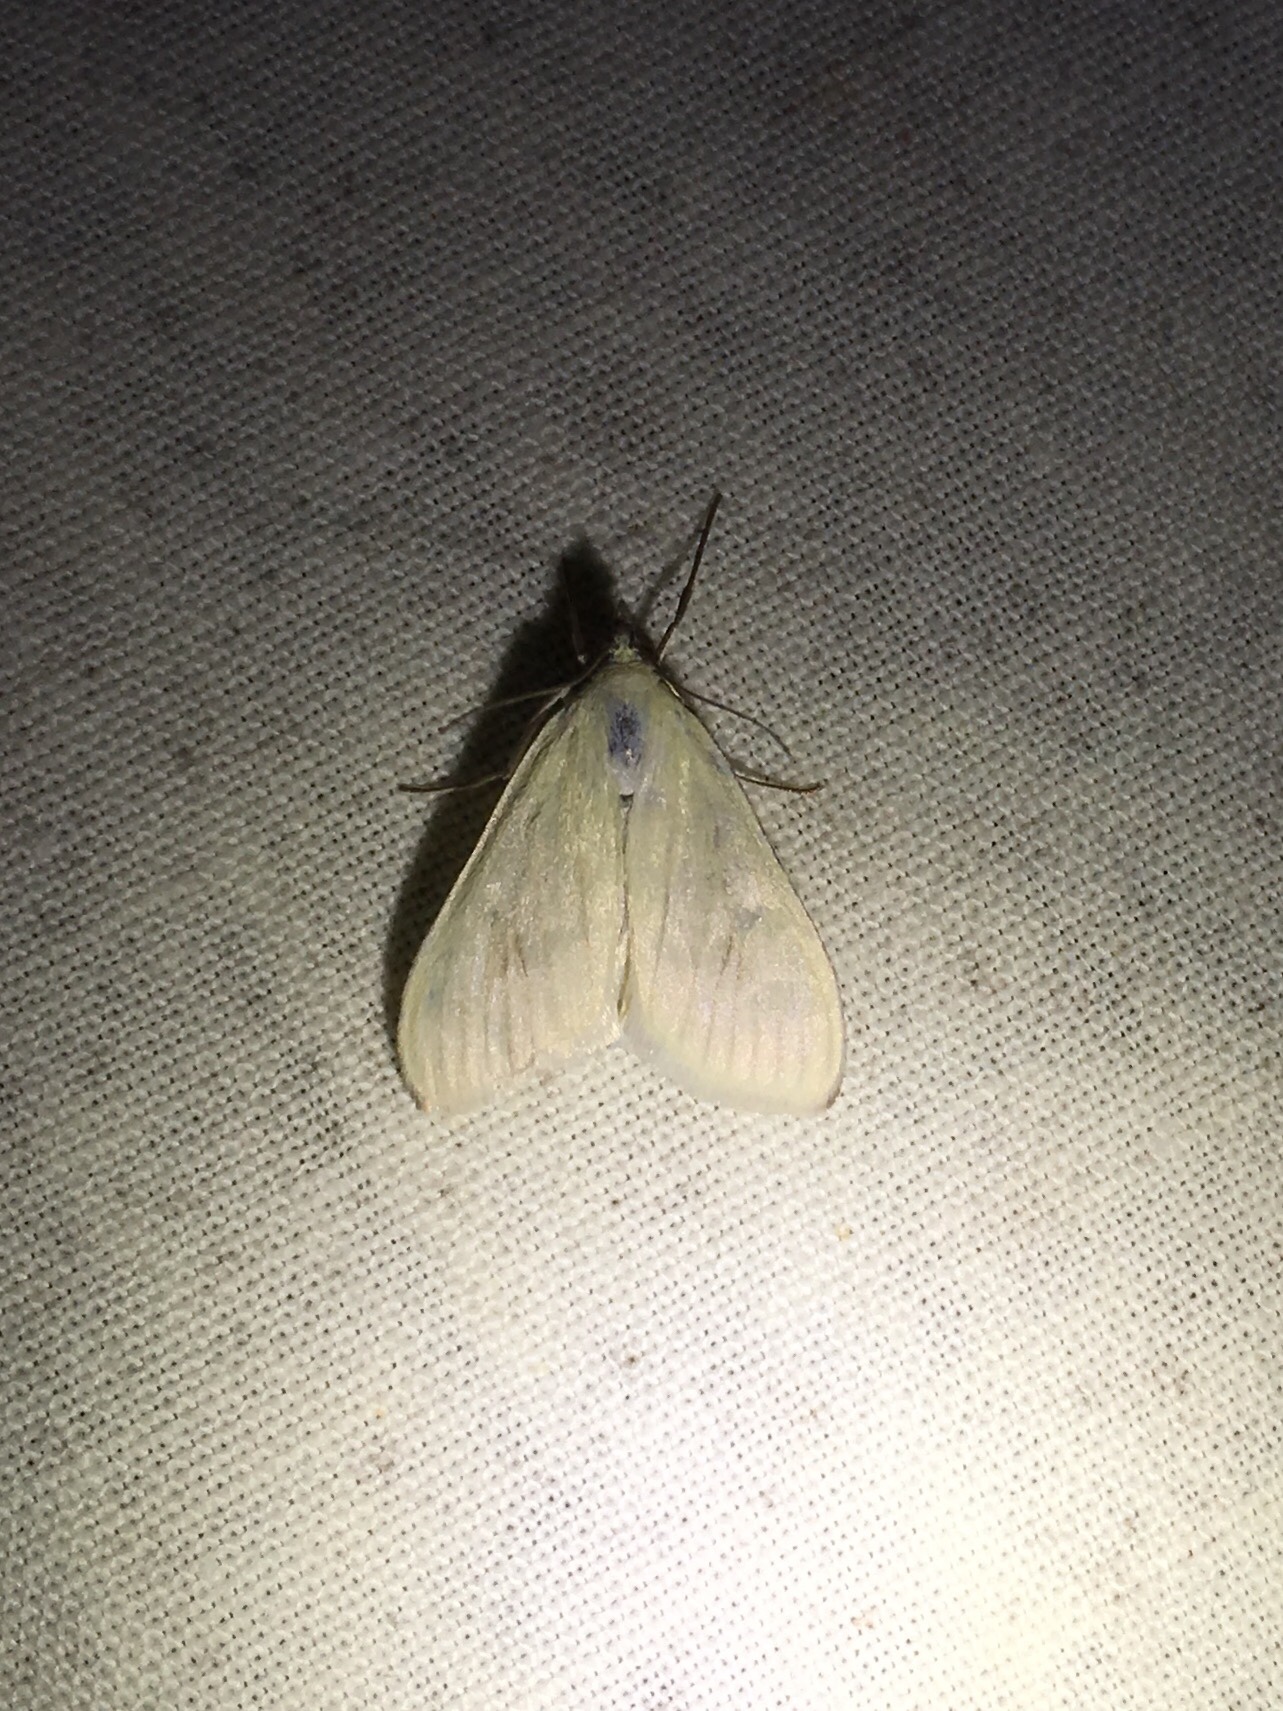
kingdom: Animalia
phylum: Arthropoda
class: Insecta
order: Lepidoptera
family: Crambidae
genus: Sitochroa
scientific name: Sitochroa palealis
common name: Greenish-yellow sitochroa moth
